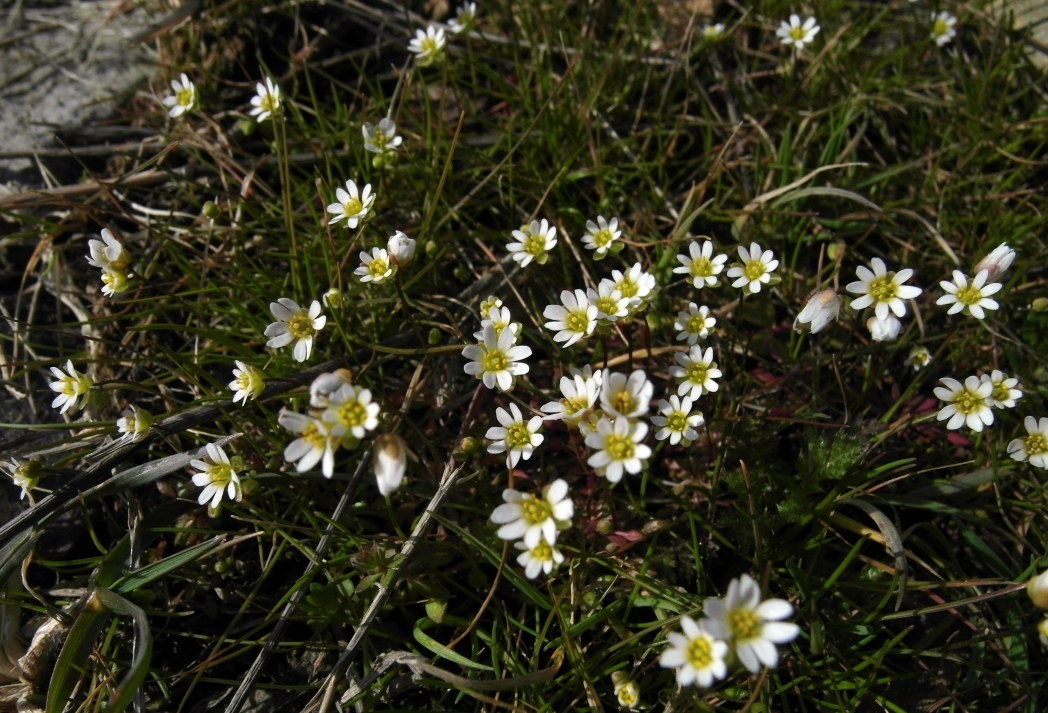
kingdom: Plantae
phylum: Tracheophyta
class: Magnoliopsida
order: Brassicales
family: Brassicaceae
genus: Draba
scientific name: Draba verna
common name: Spring draba
